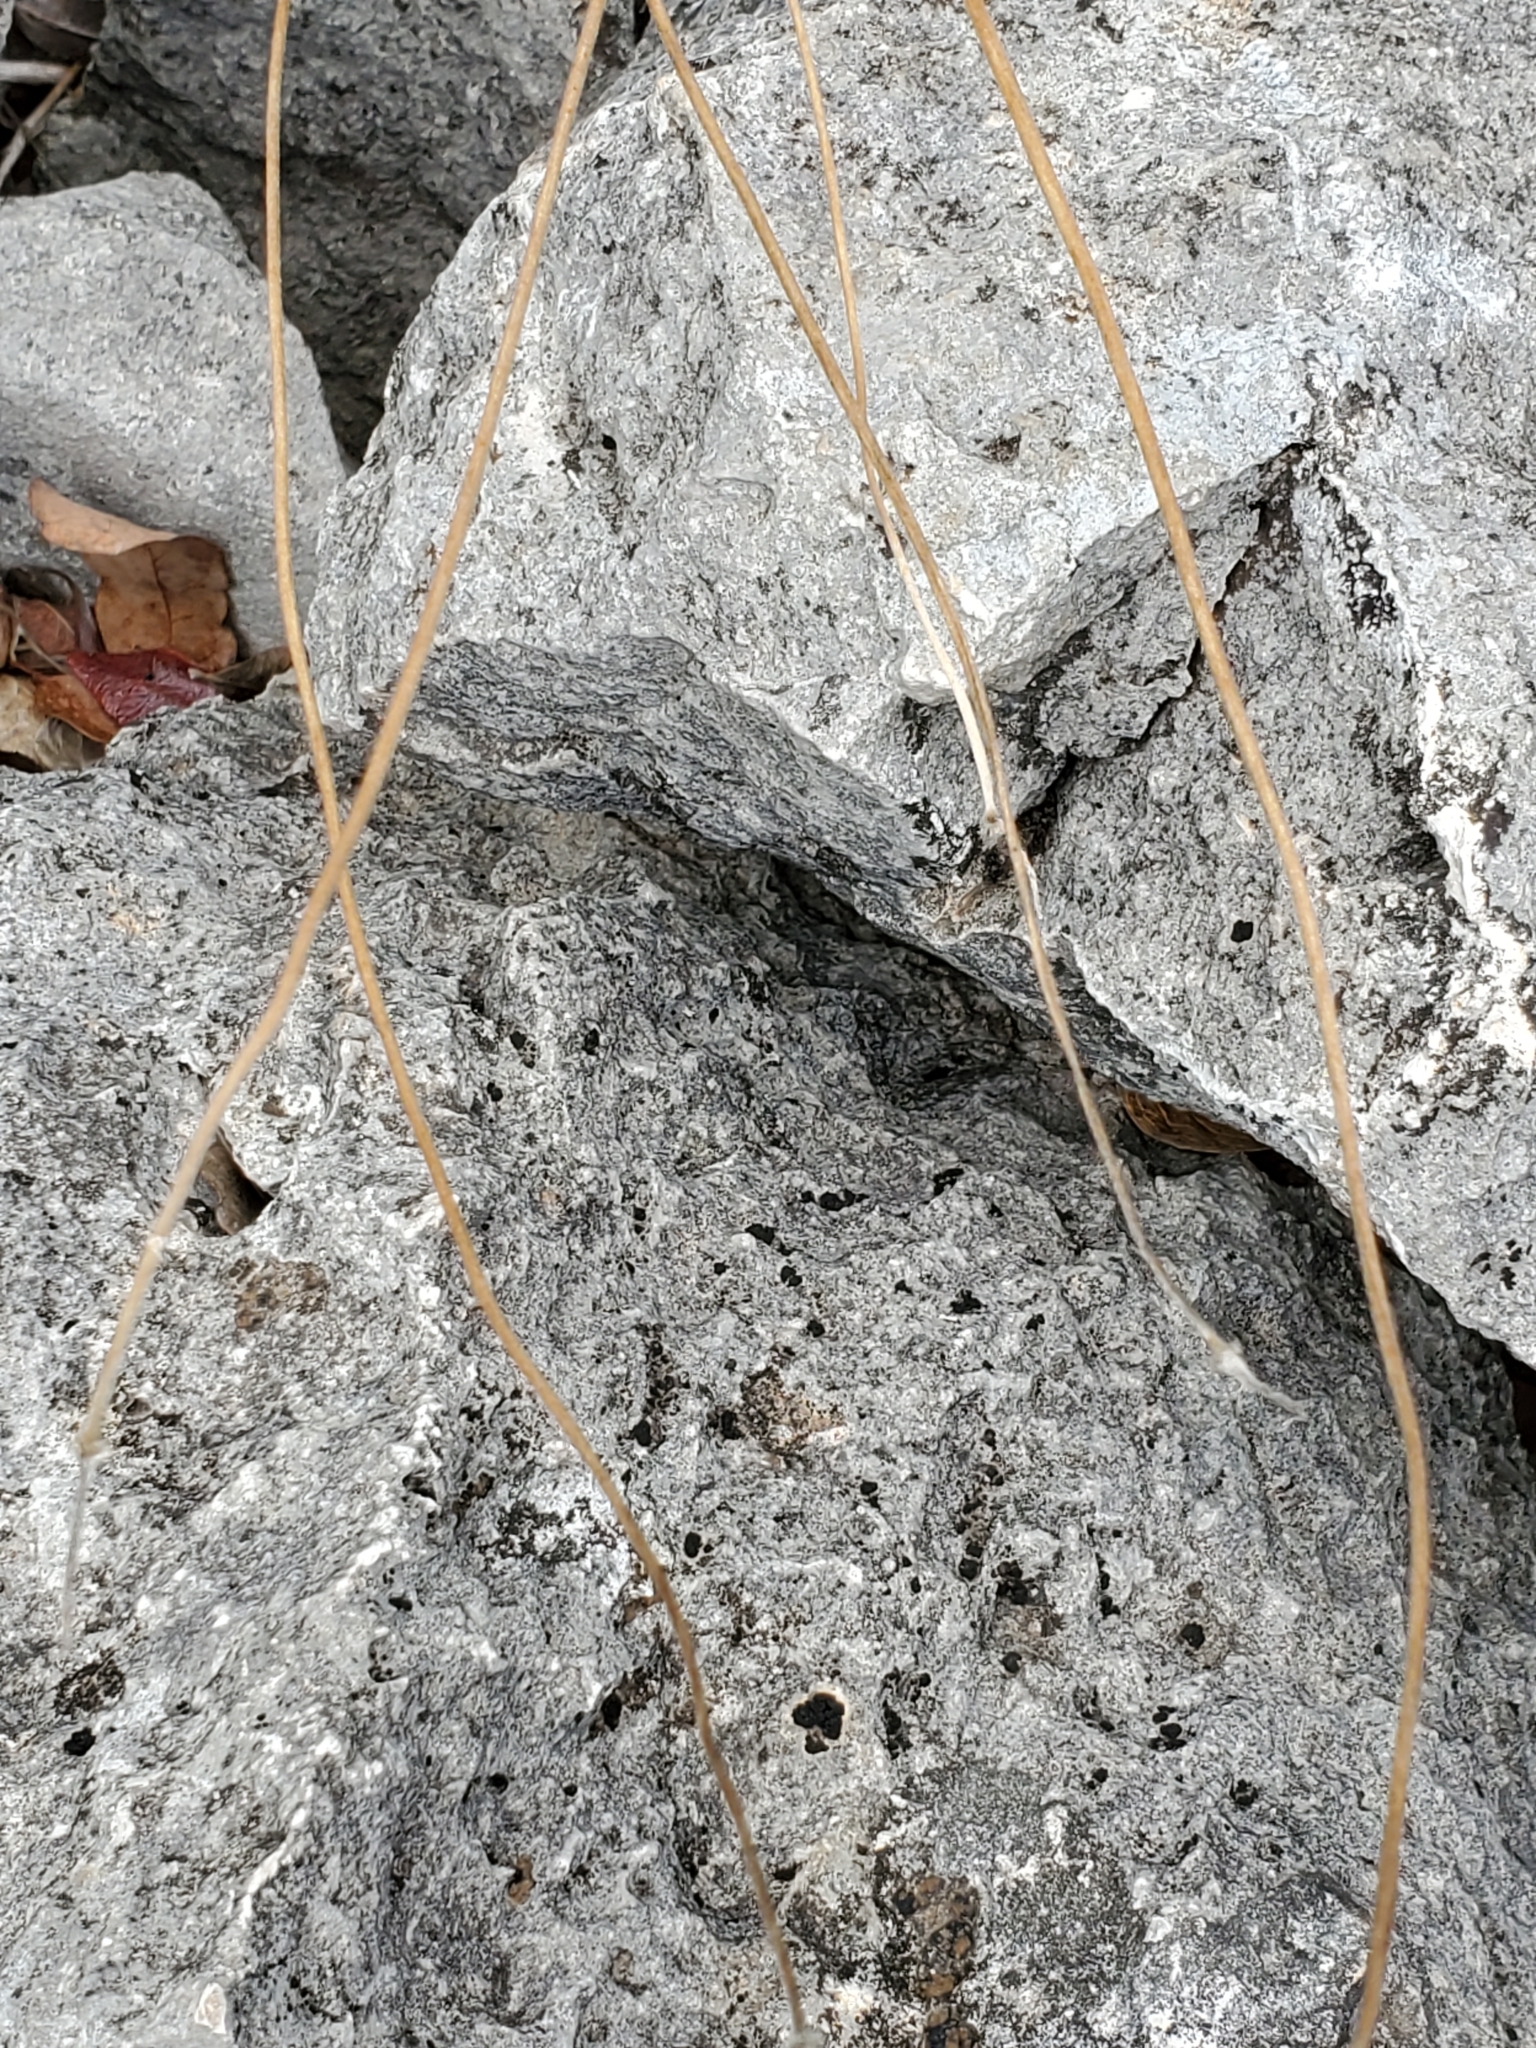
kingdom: Plantae
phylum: Tracheophyta
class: Magnoliopsida
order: Ranunculales
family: Ranunculaceae
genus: Anemone
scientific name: Anemone edwardsiana
